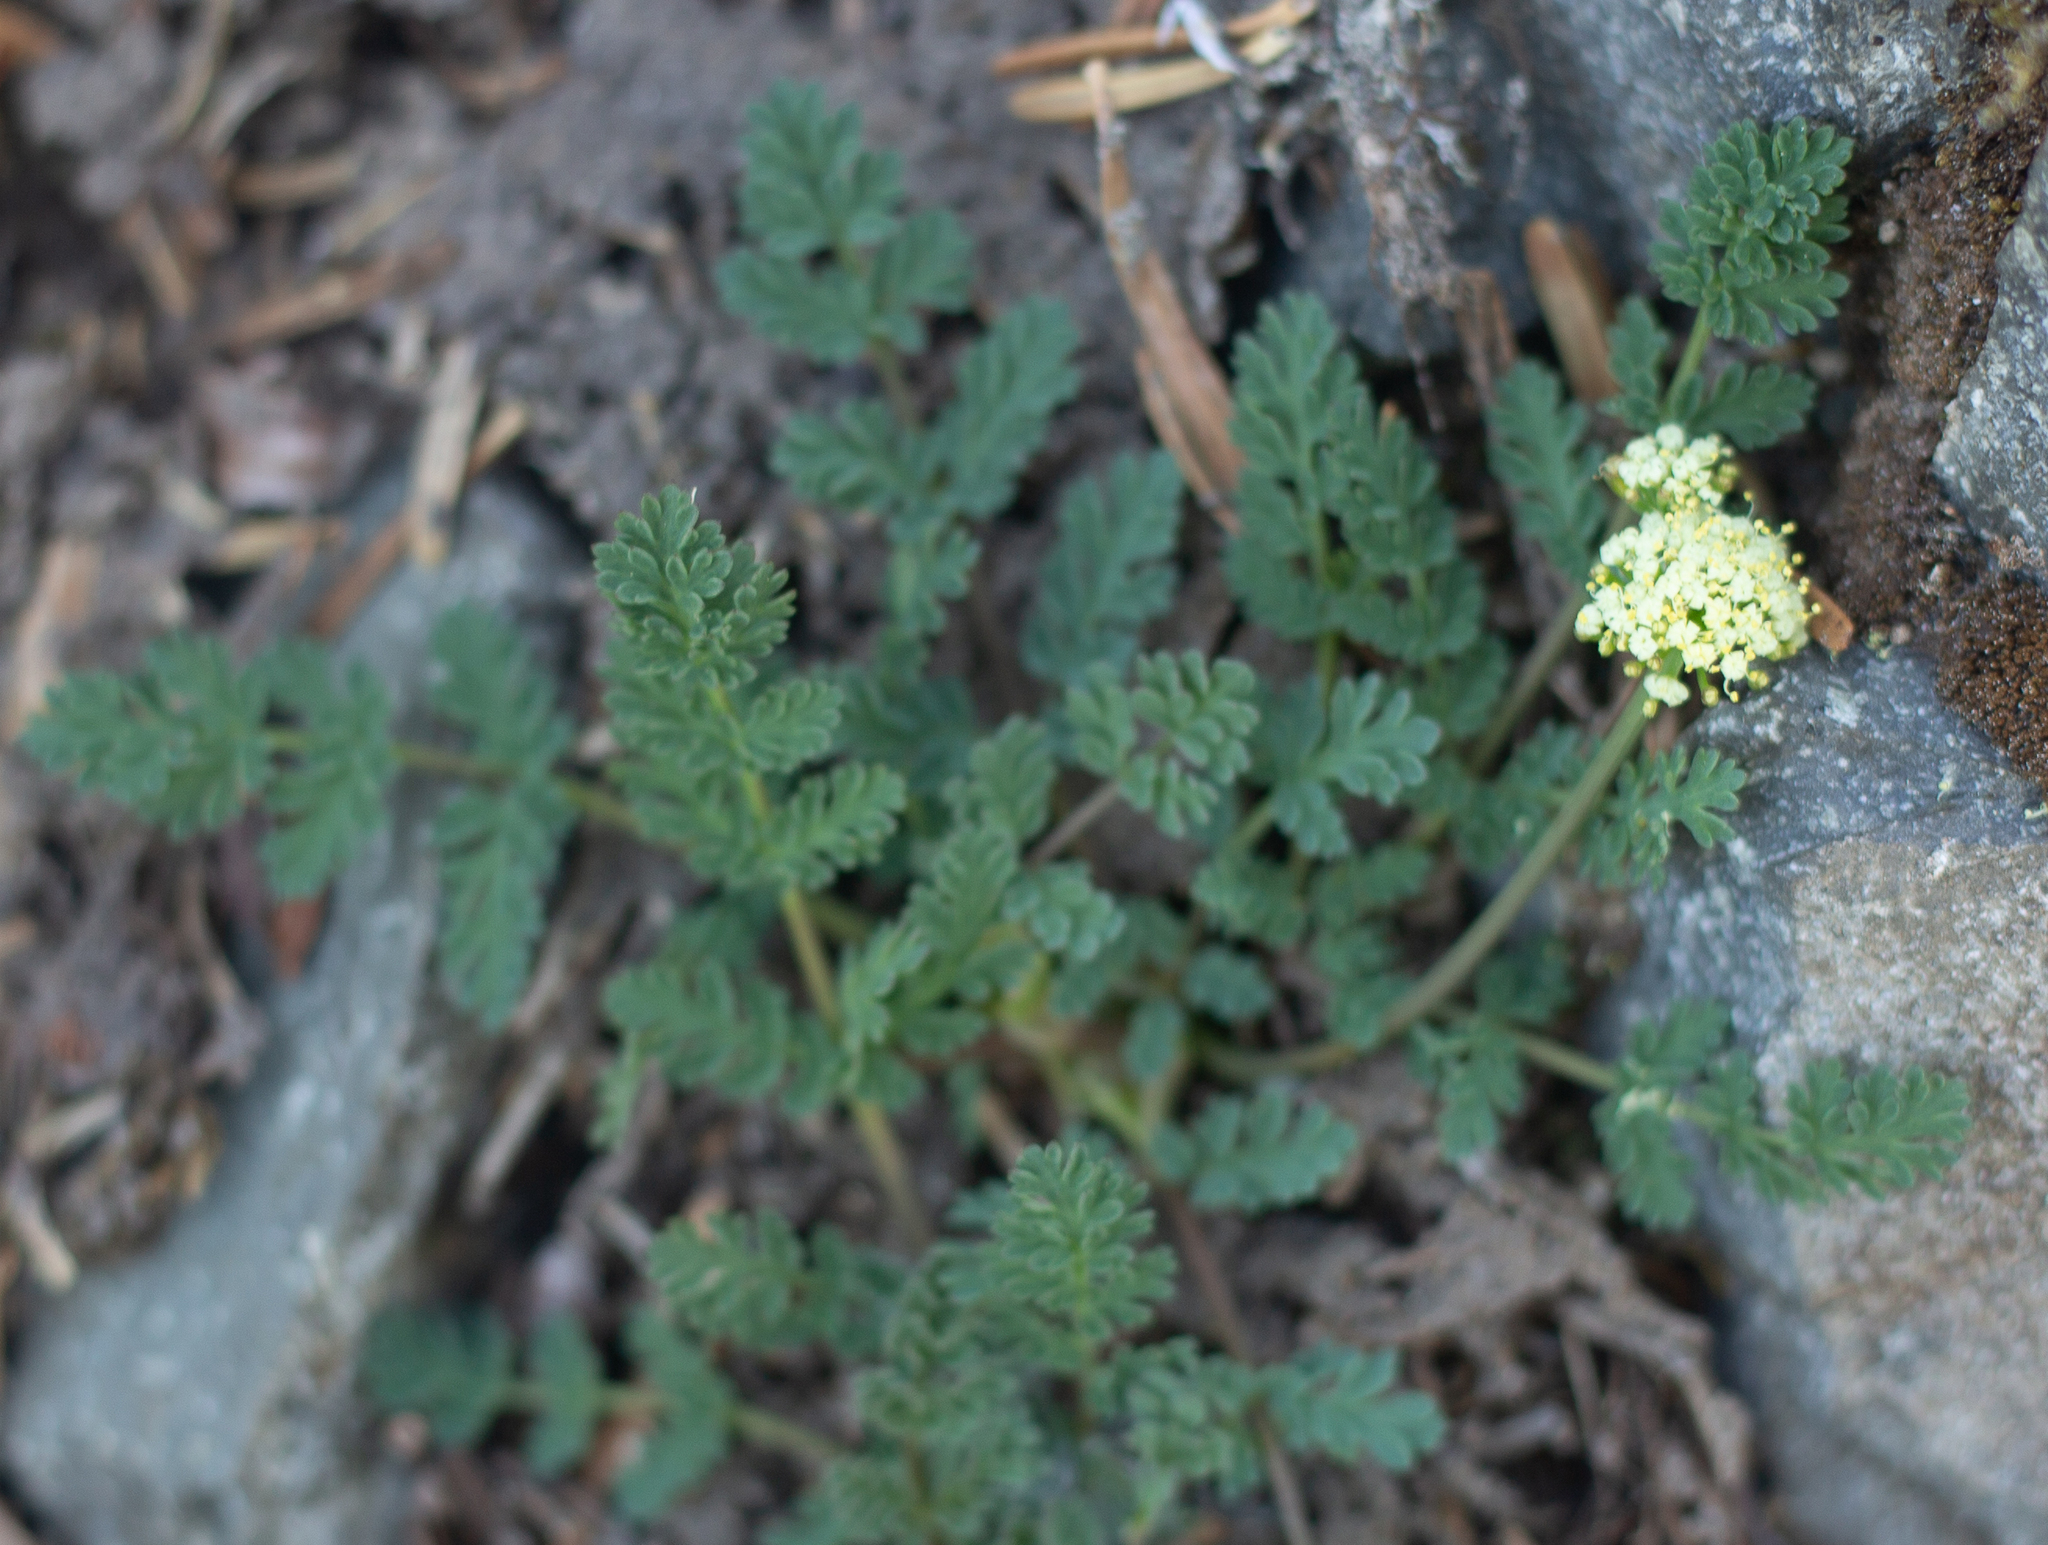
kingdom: Plantae
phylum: Tracheophyta
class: Magnoliopsida
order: Apiales
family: Apiaceae
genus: Lomatium
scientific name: Lomatium martindalei
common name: Cascade desert-parsley
